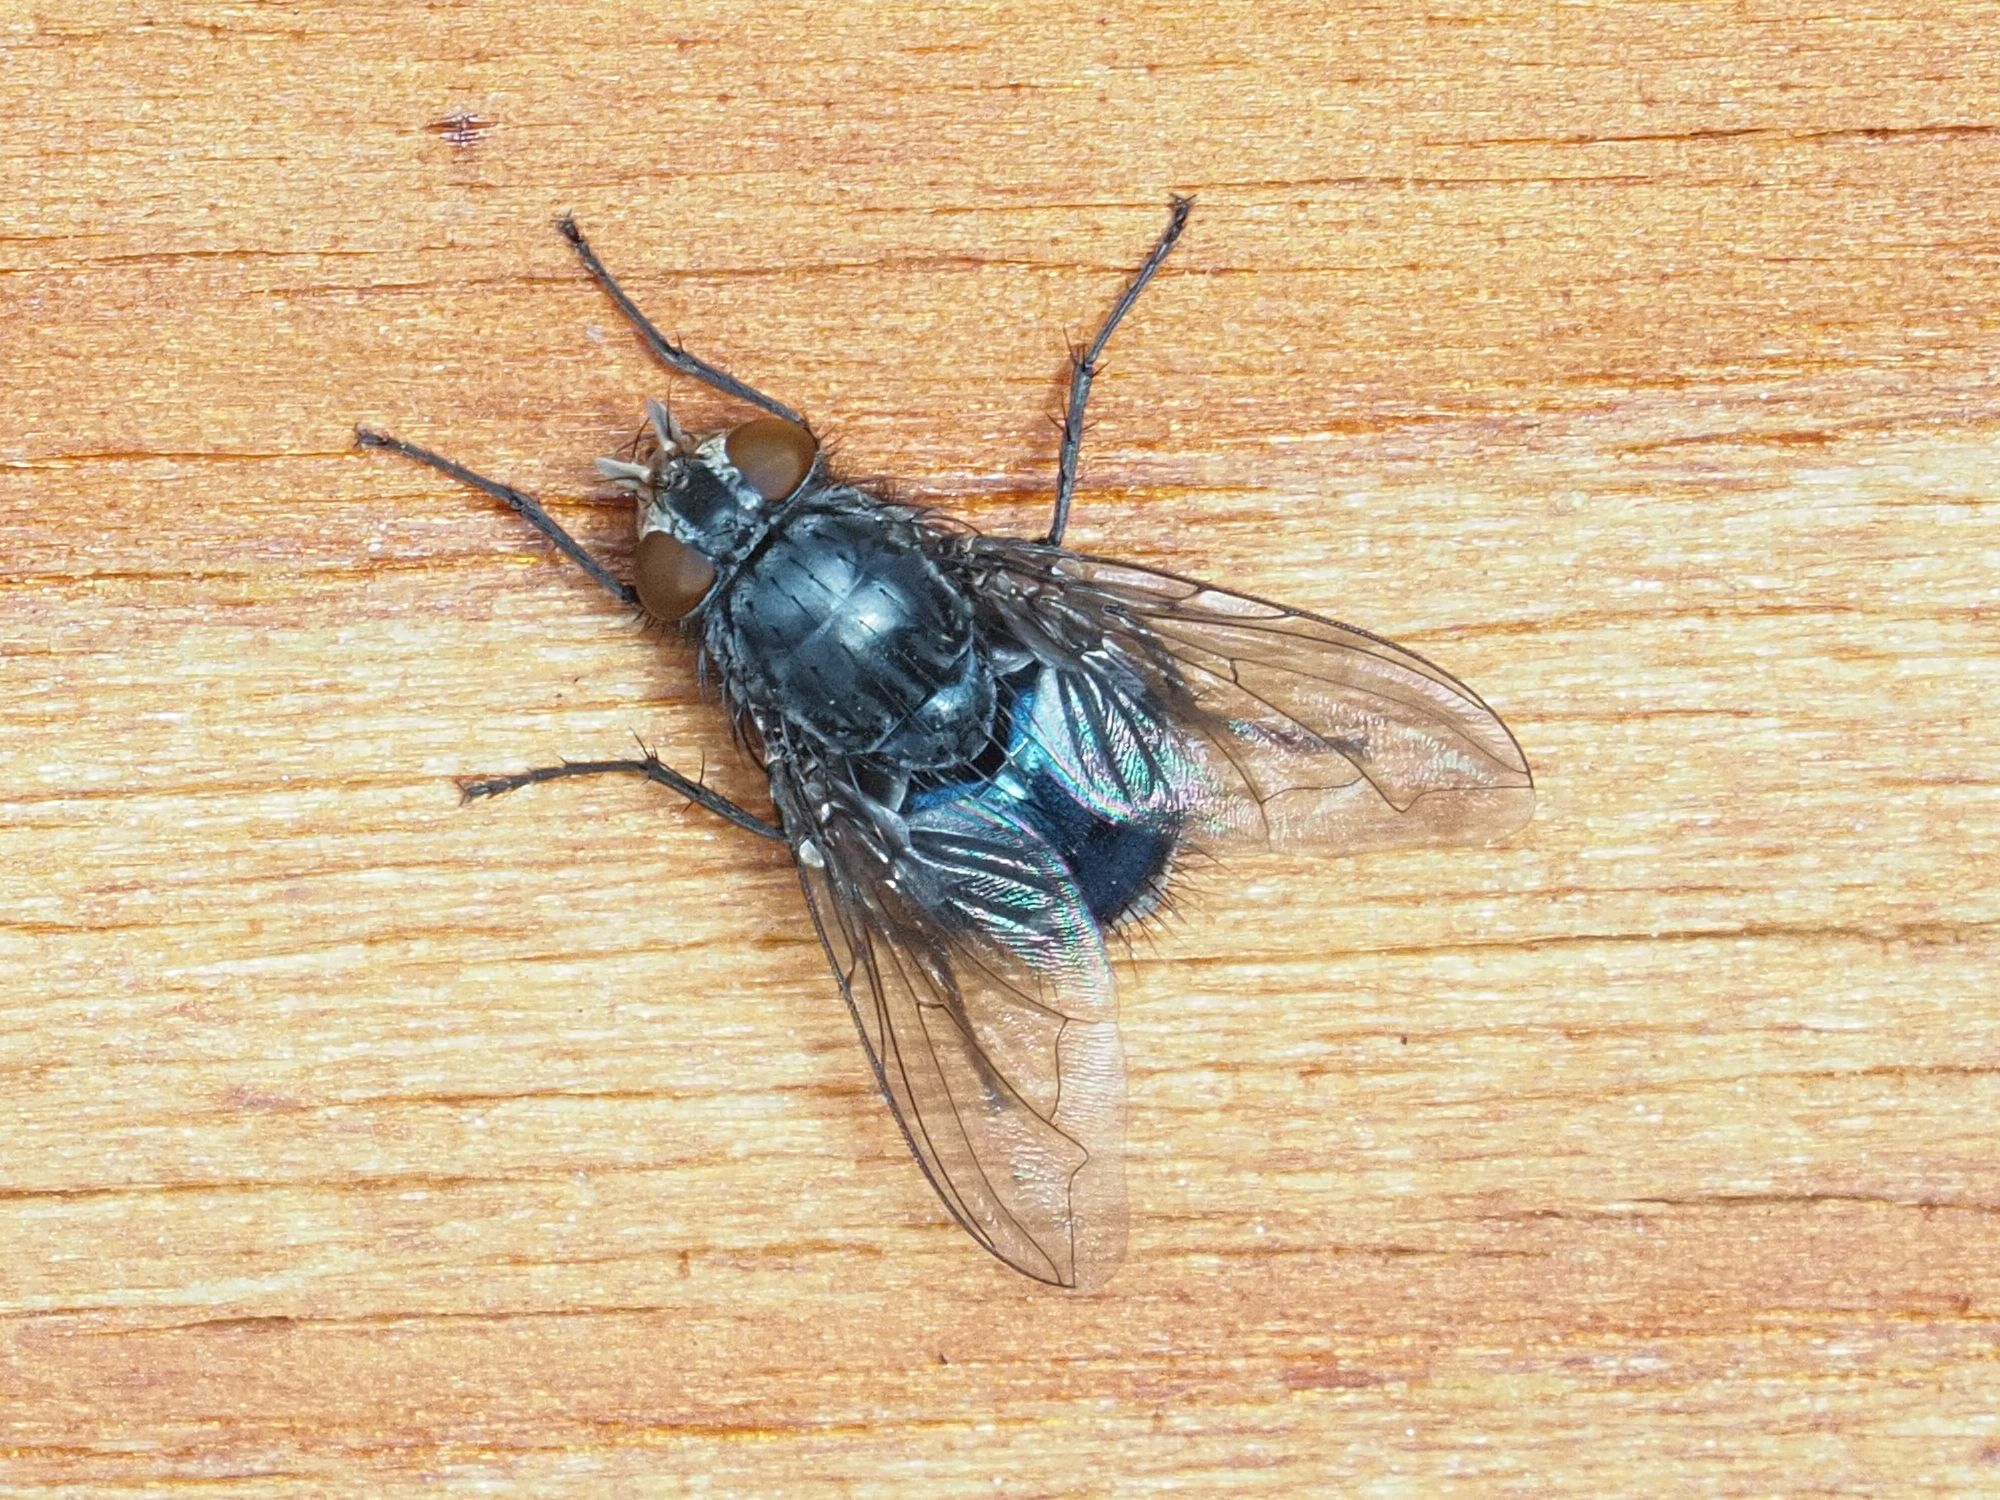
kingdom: Animalia
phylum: Arthropoda
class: Insecta
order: Diptera
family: Calliphoridae
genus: Calliphora
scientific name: Calliphora vicina
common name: Common blow flie
